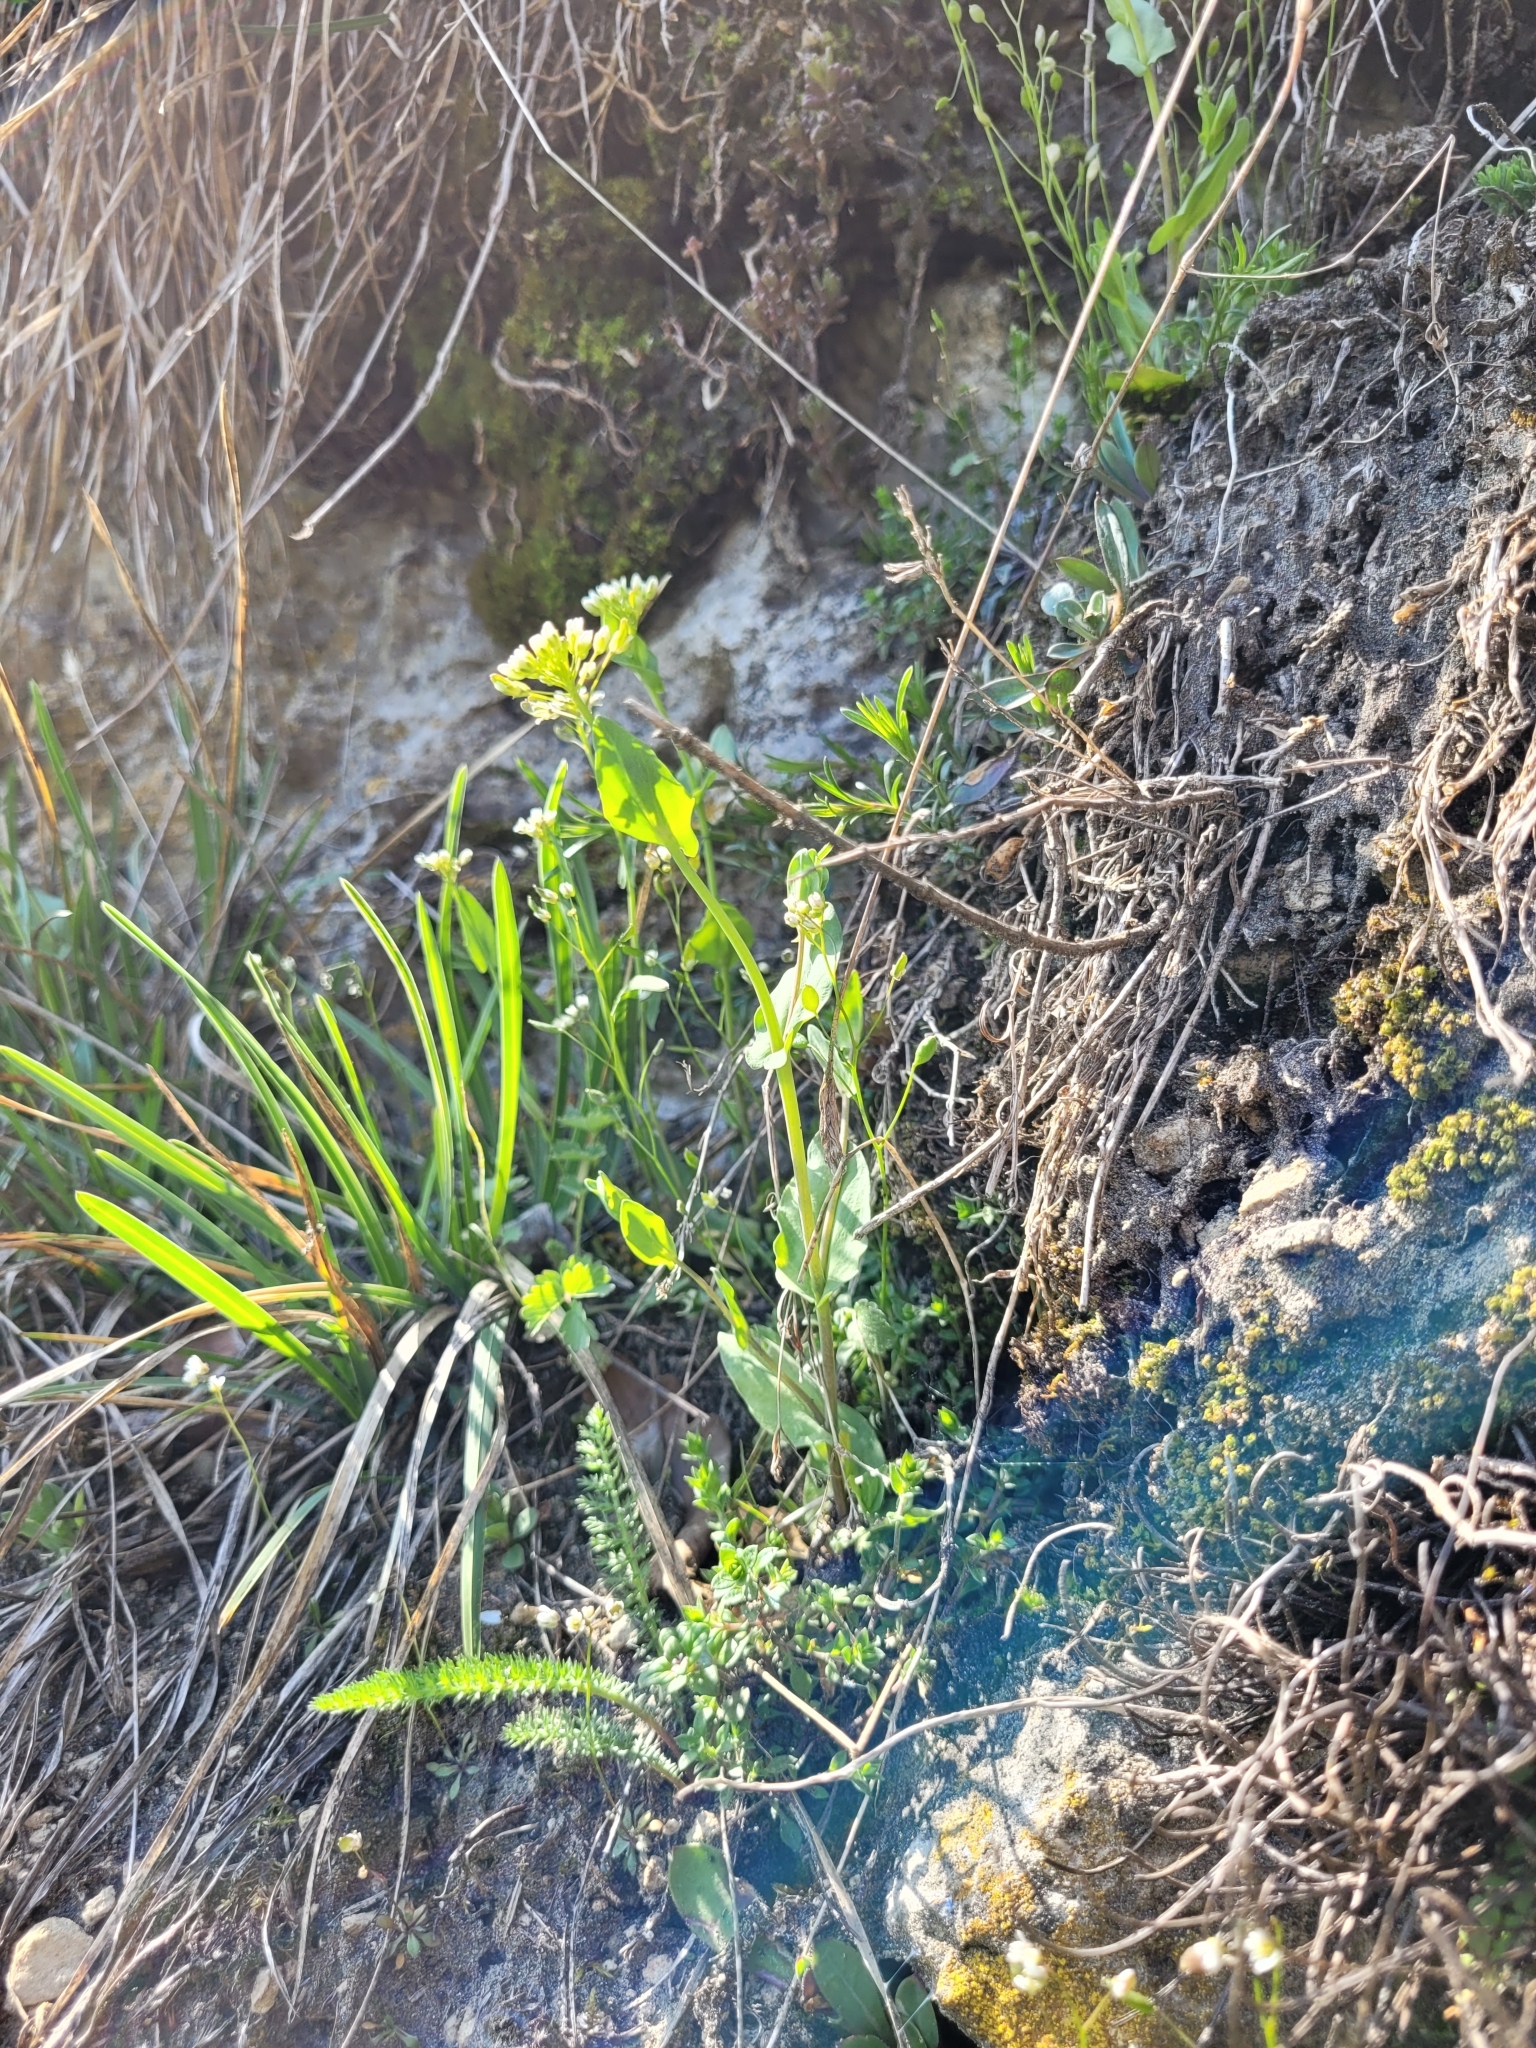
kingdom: Plantae
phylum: Tracheophyta
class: Magnoliopsida
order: Brassicales
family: Brassicaceae
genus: Noccaea
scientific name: Noccaea perfoliata
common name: Perfoliate pennycress
